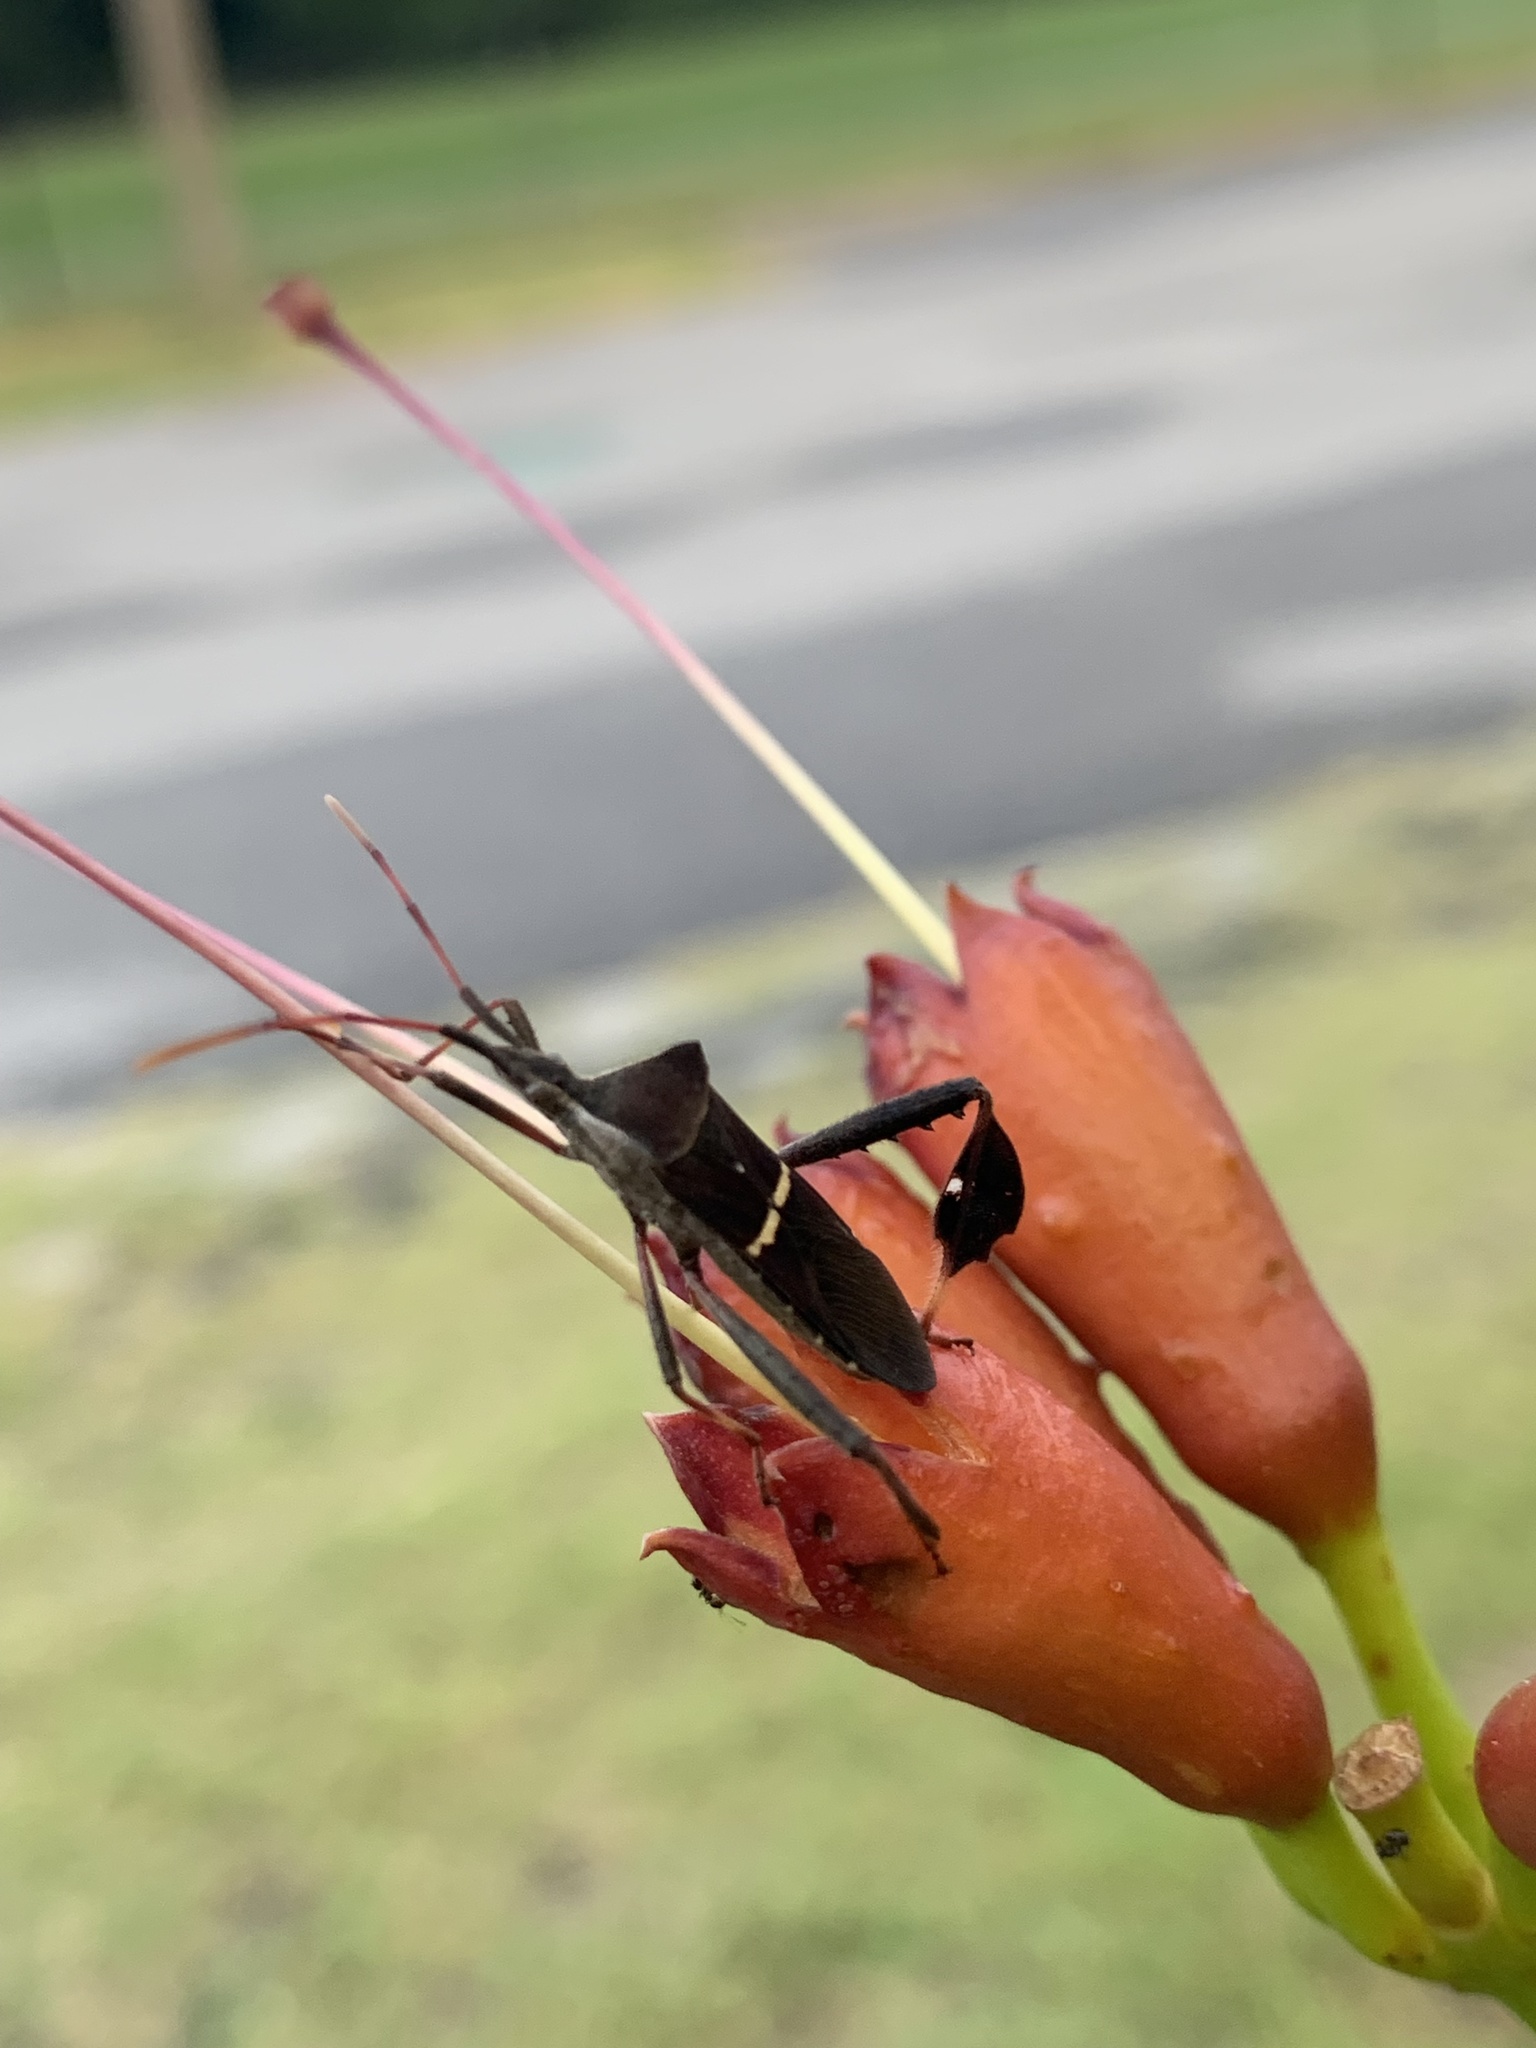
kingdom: Animalia
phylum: Arthropoda
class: Insecta
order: Hemiptera
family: Coreidae
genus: Leptoglossus
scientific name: Leptoglossus phyllopus
